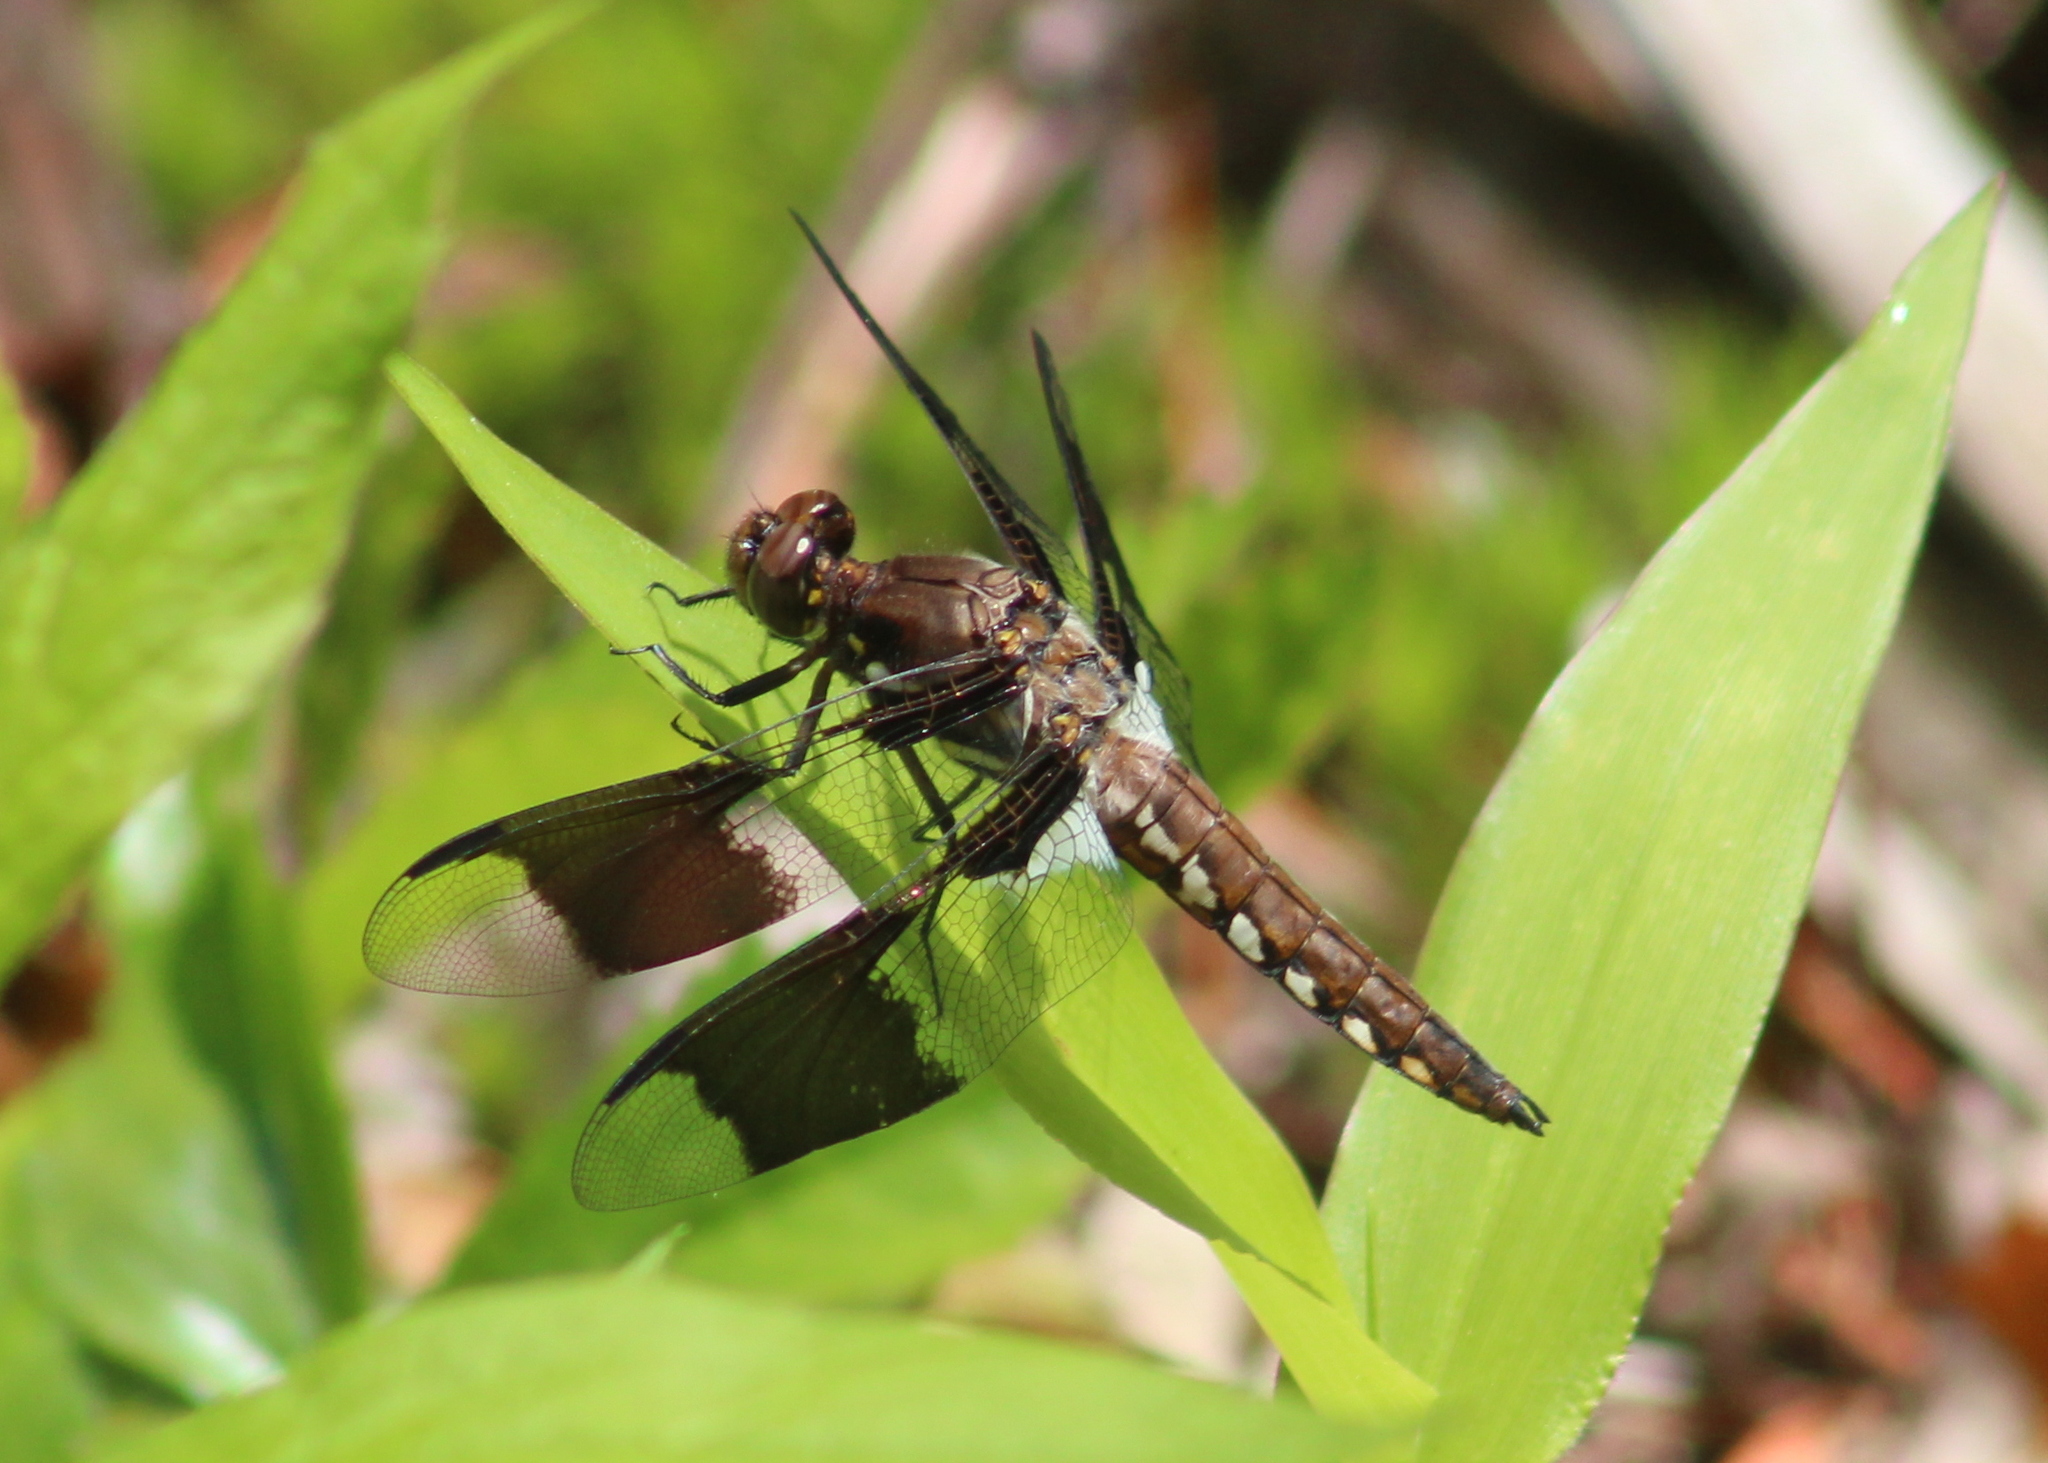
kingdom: Animalia
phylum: Arthropoda
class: Insecta
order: Odonata
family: Libellulidae
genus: Plathemis
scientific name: Plathemis lydia
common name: Common whitetail
